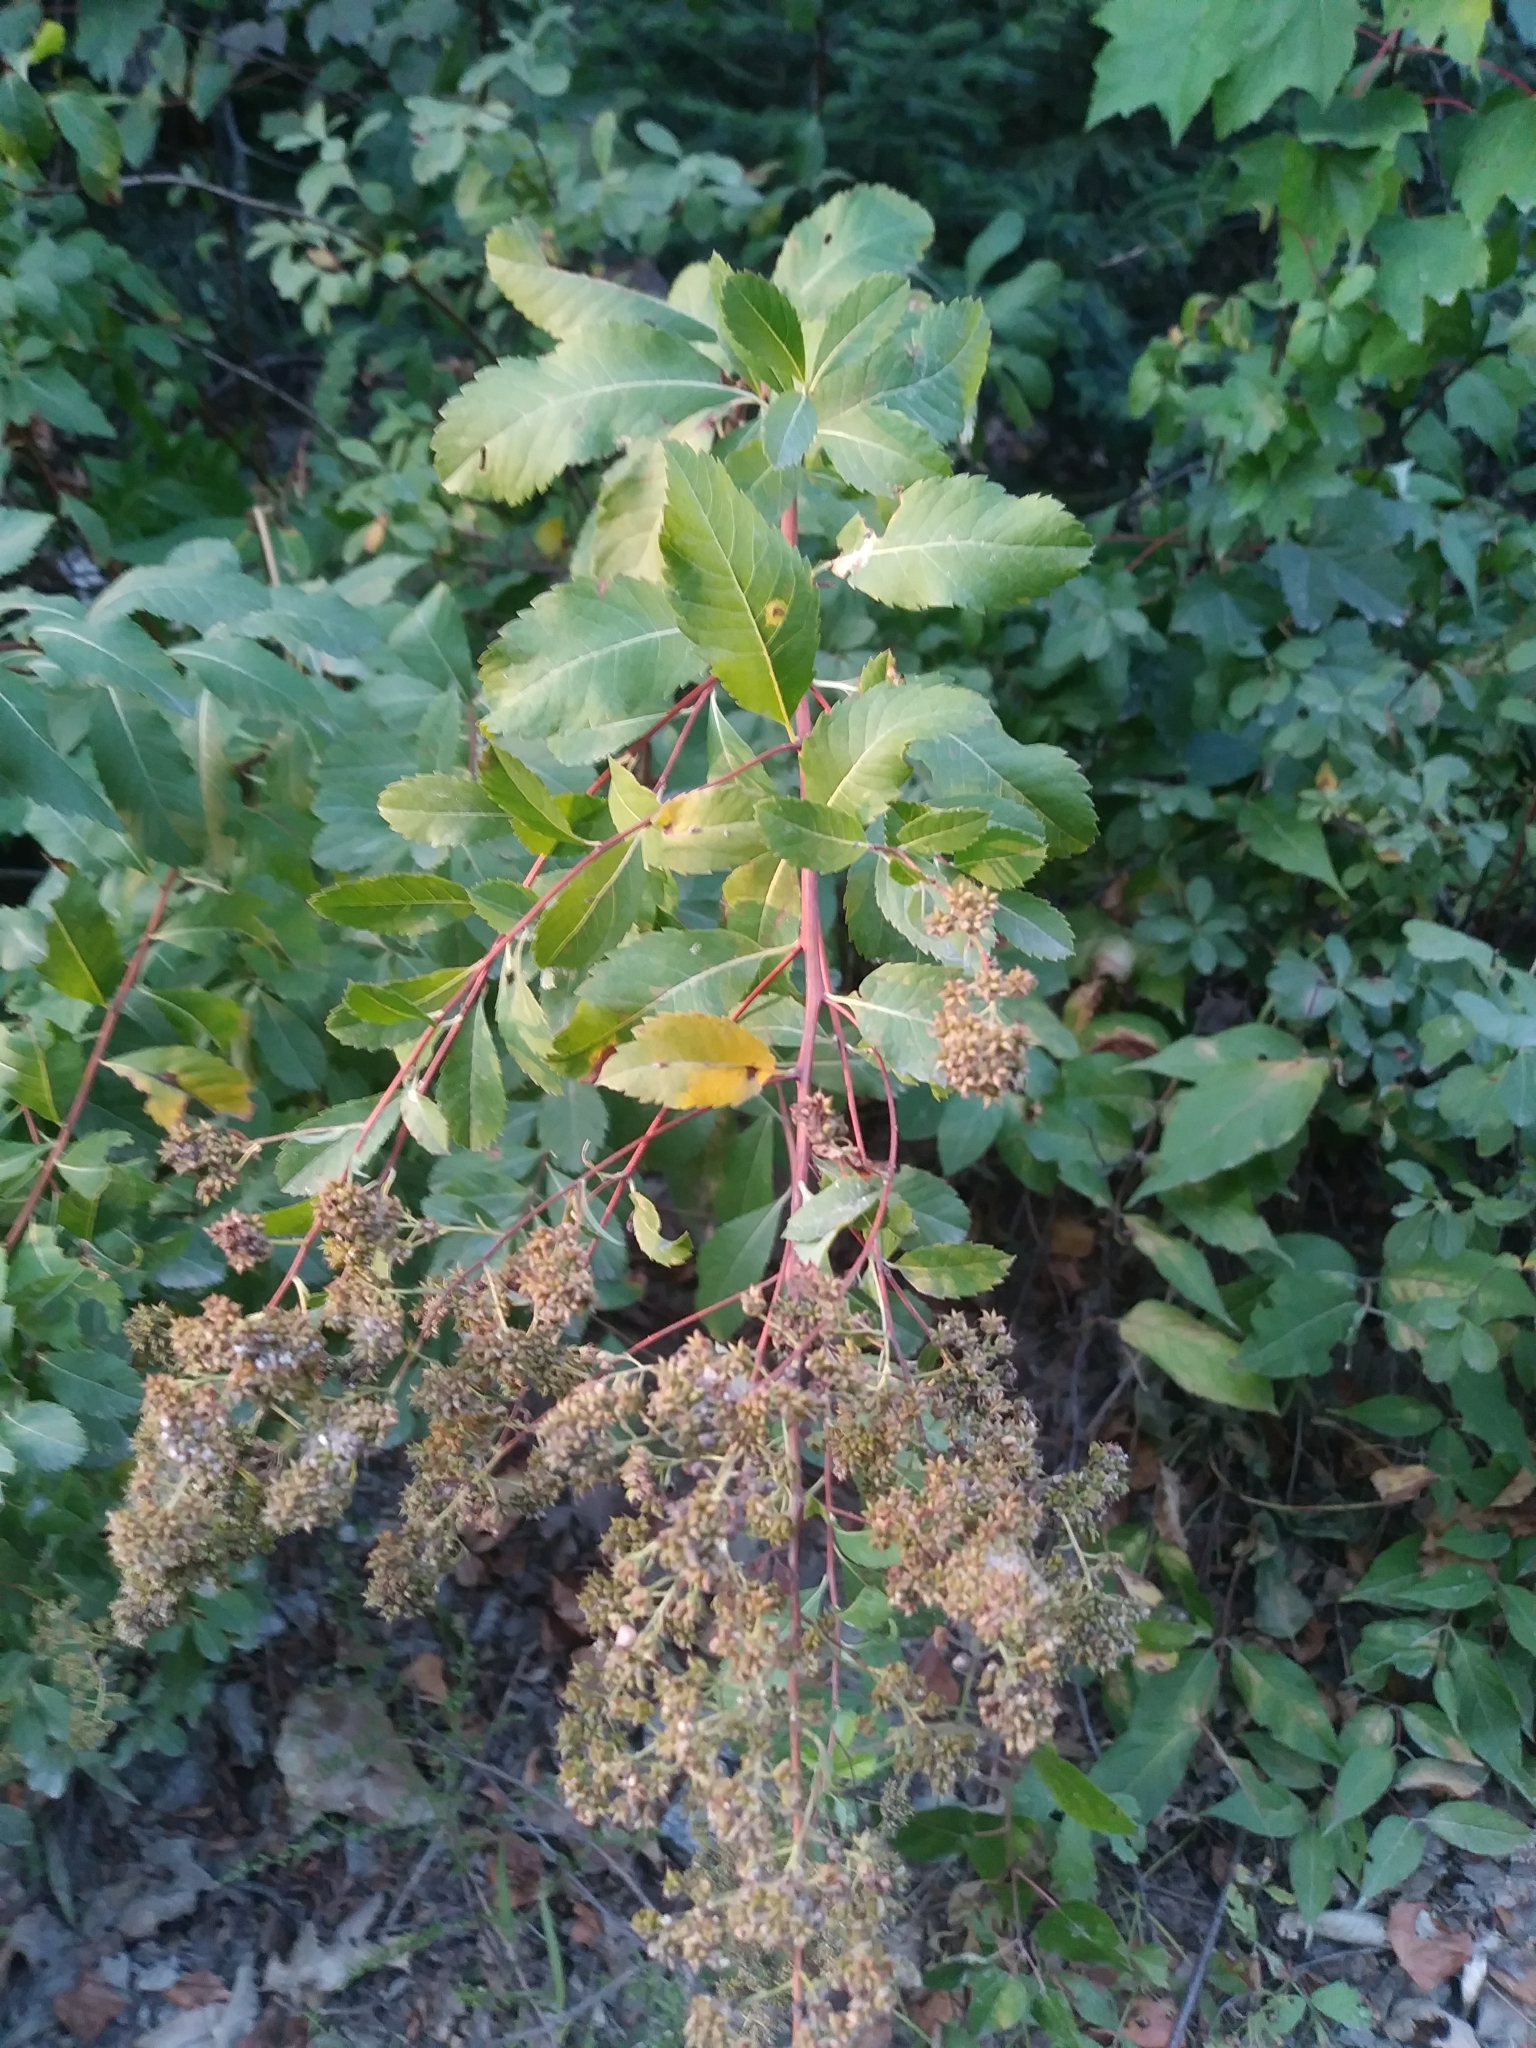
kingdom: Plantae
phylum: Tracheophyta
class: Magnoliopsida
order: Rosales
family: Rosaceae
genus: Spiraea
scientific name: Spiraea alba
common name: Pale bridewort
